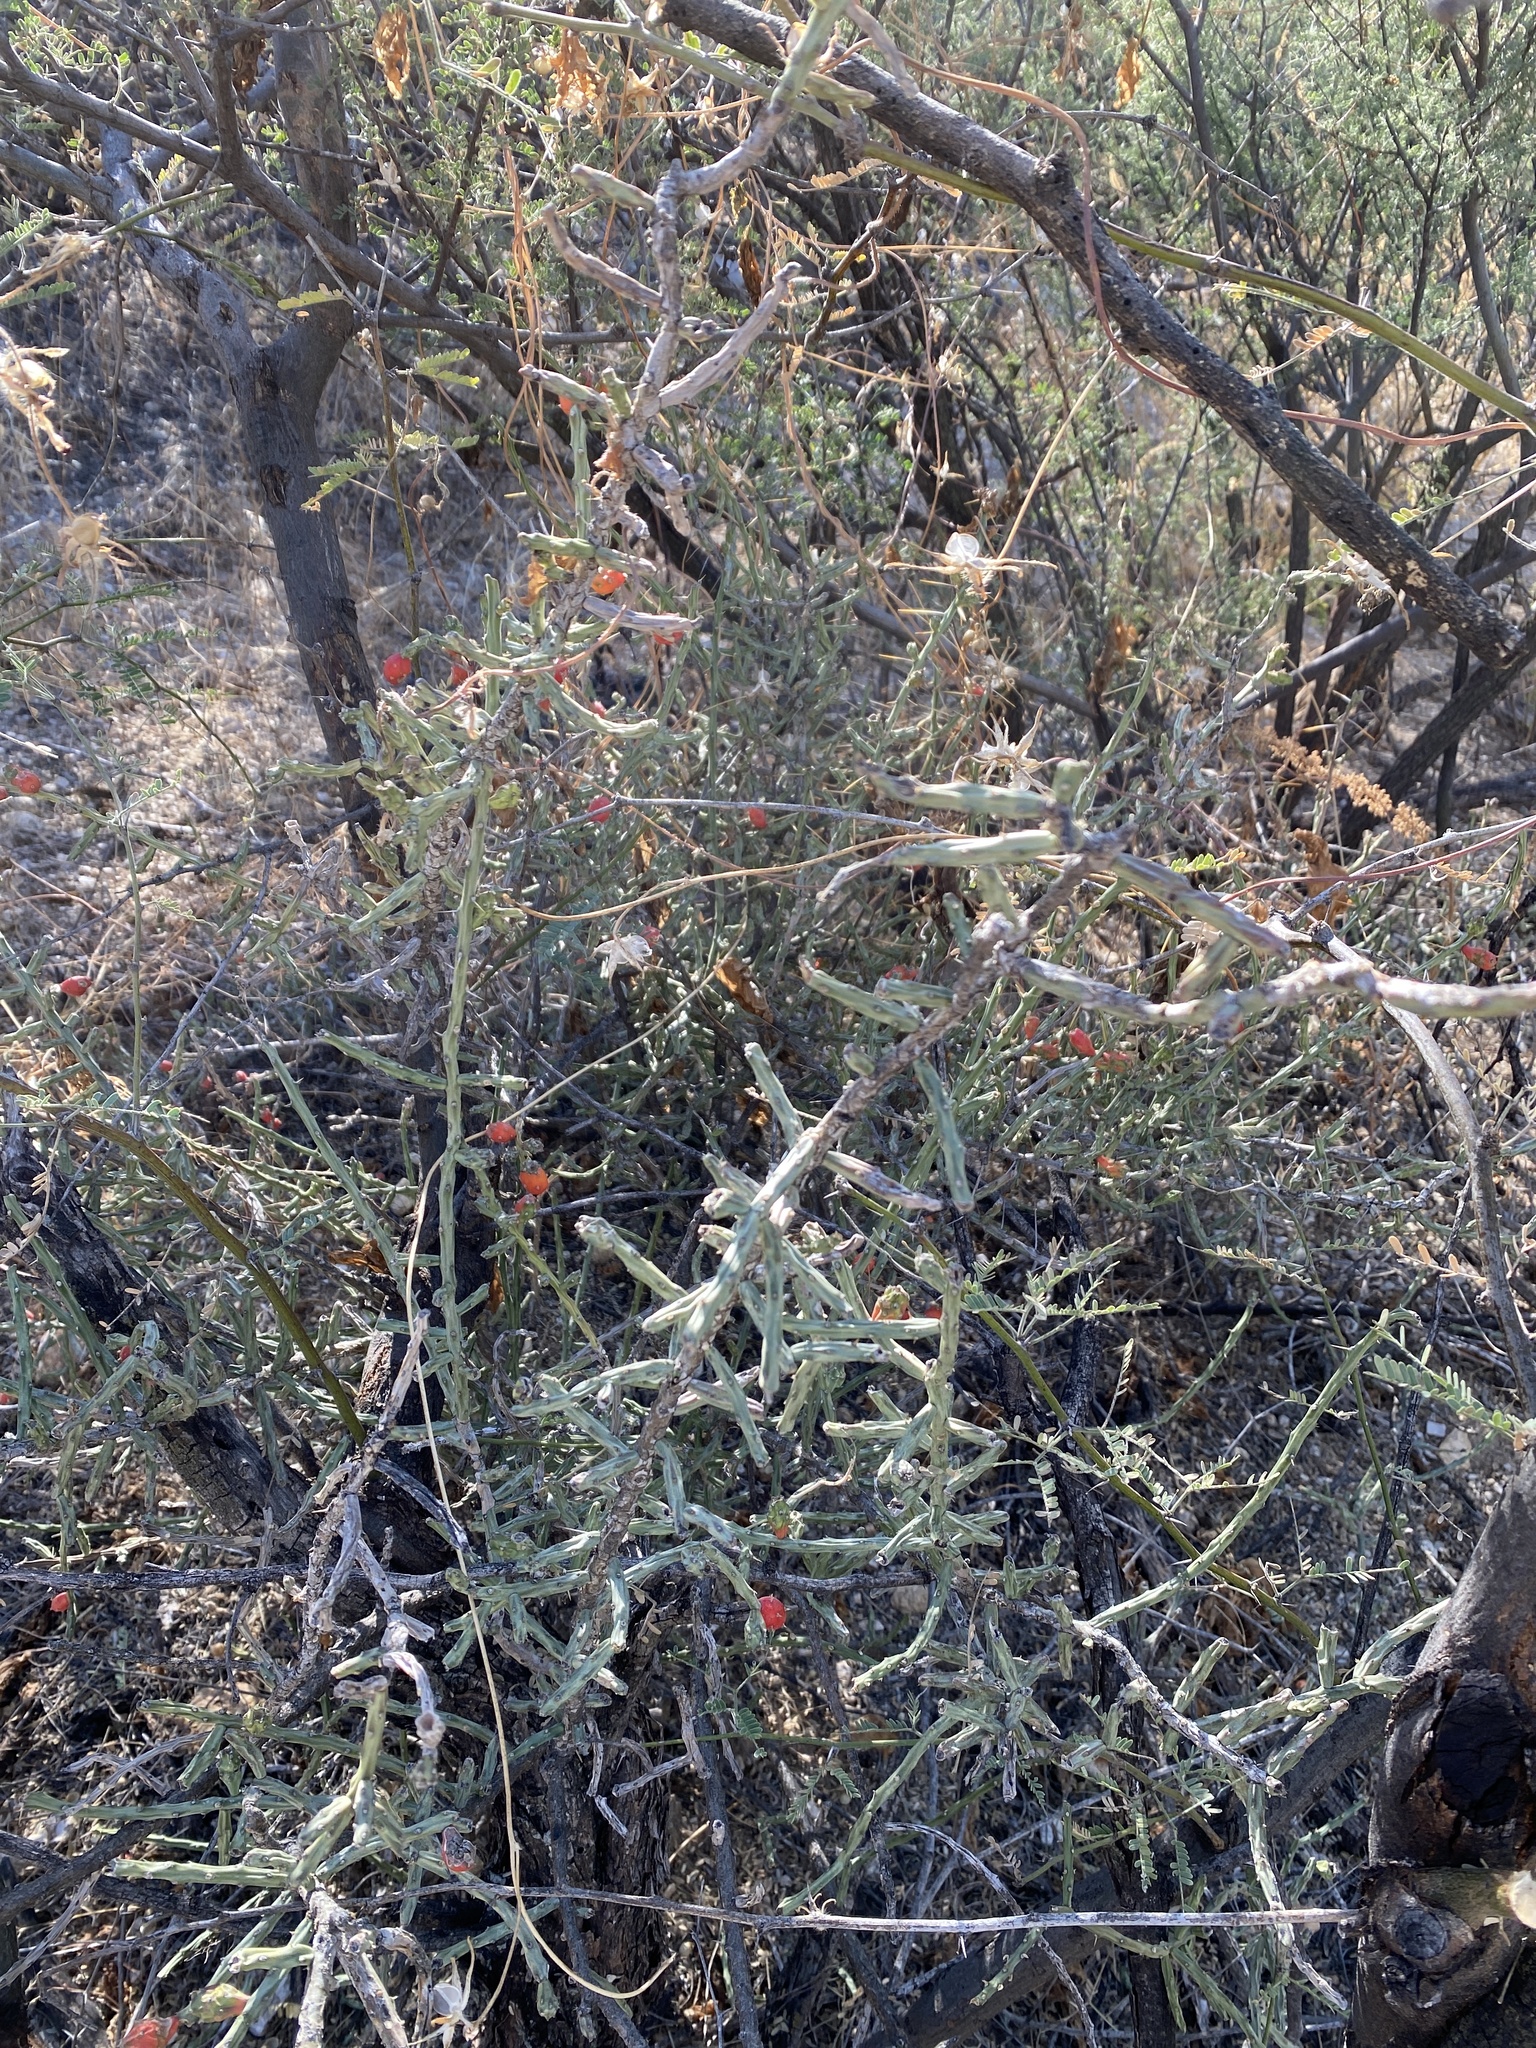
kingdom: Plantae
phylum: Tracheophyta
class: Magnoliopsida
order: Caryophyllales
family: Cactaceae
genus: Cylindropuntia
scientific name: Cylindropuntia leptocaulis
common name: Christmas cactus
